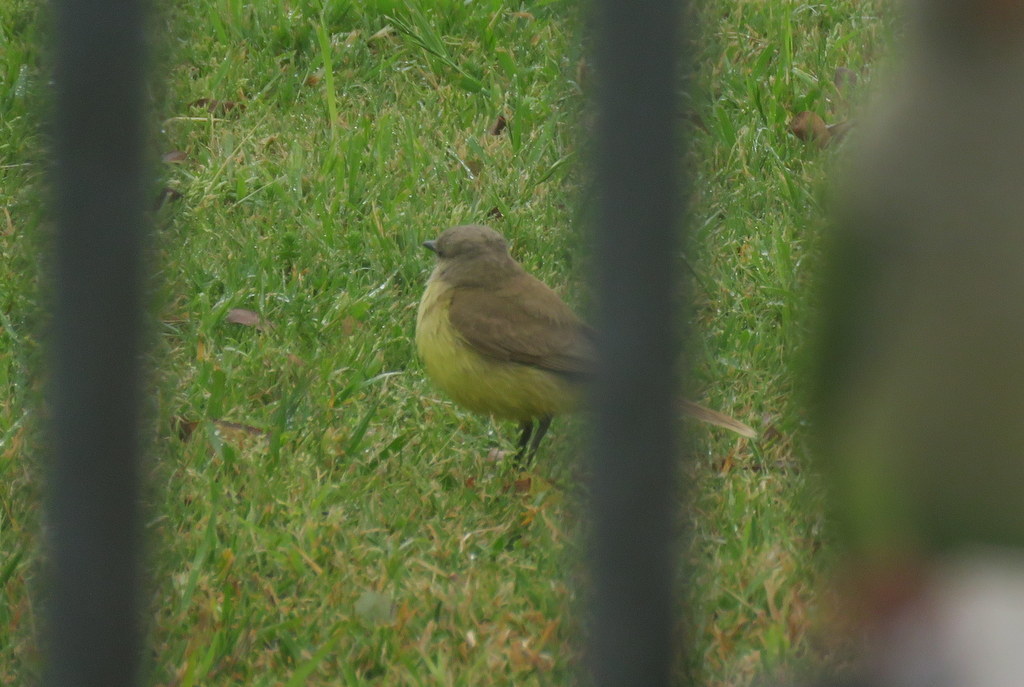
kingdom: Animalia
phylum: Chordata
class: Aves
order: Passeriformes
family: Tyrannidae
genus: Machetornis
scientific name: Machetornis rixosa
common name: Cattle tyrant
